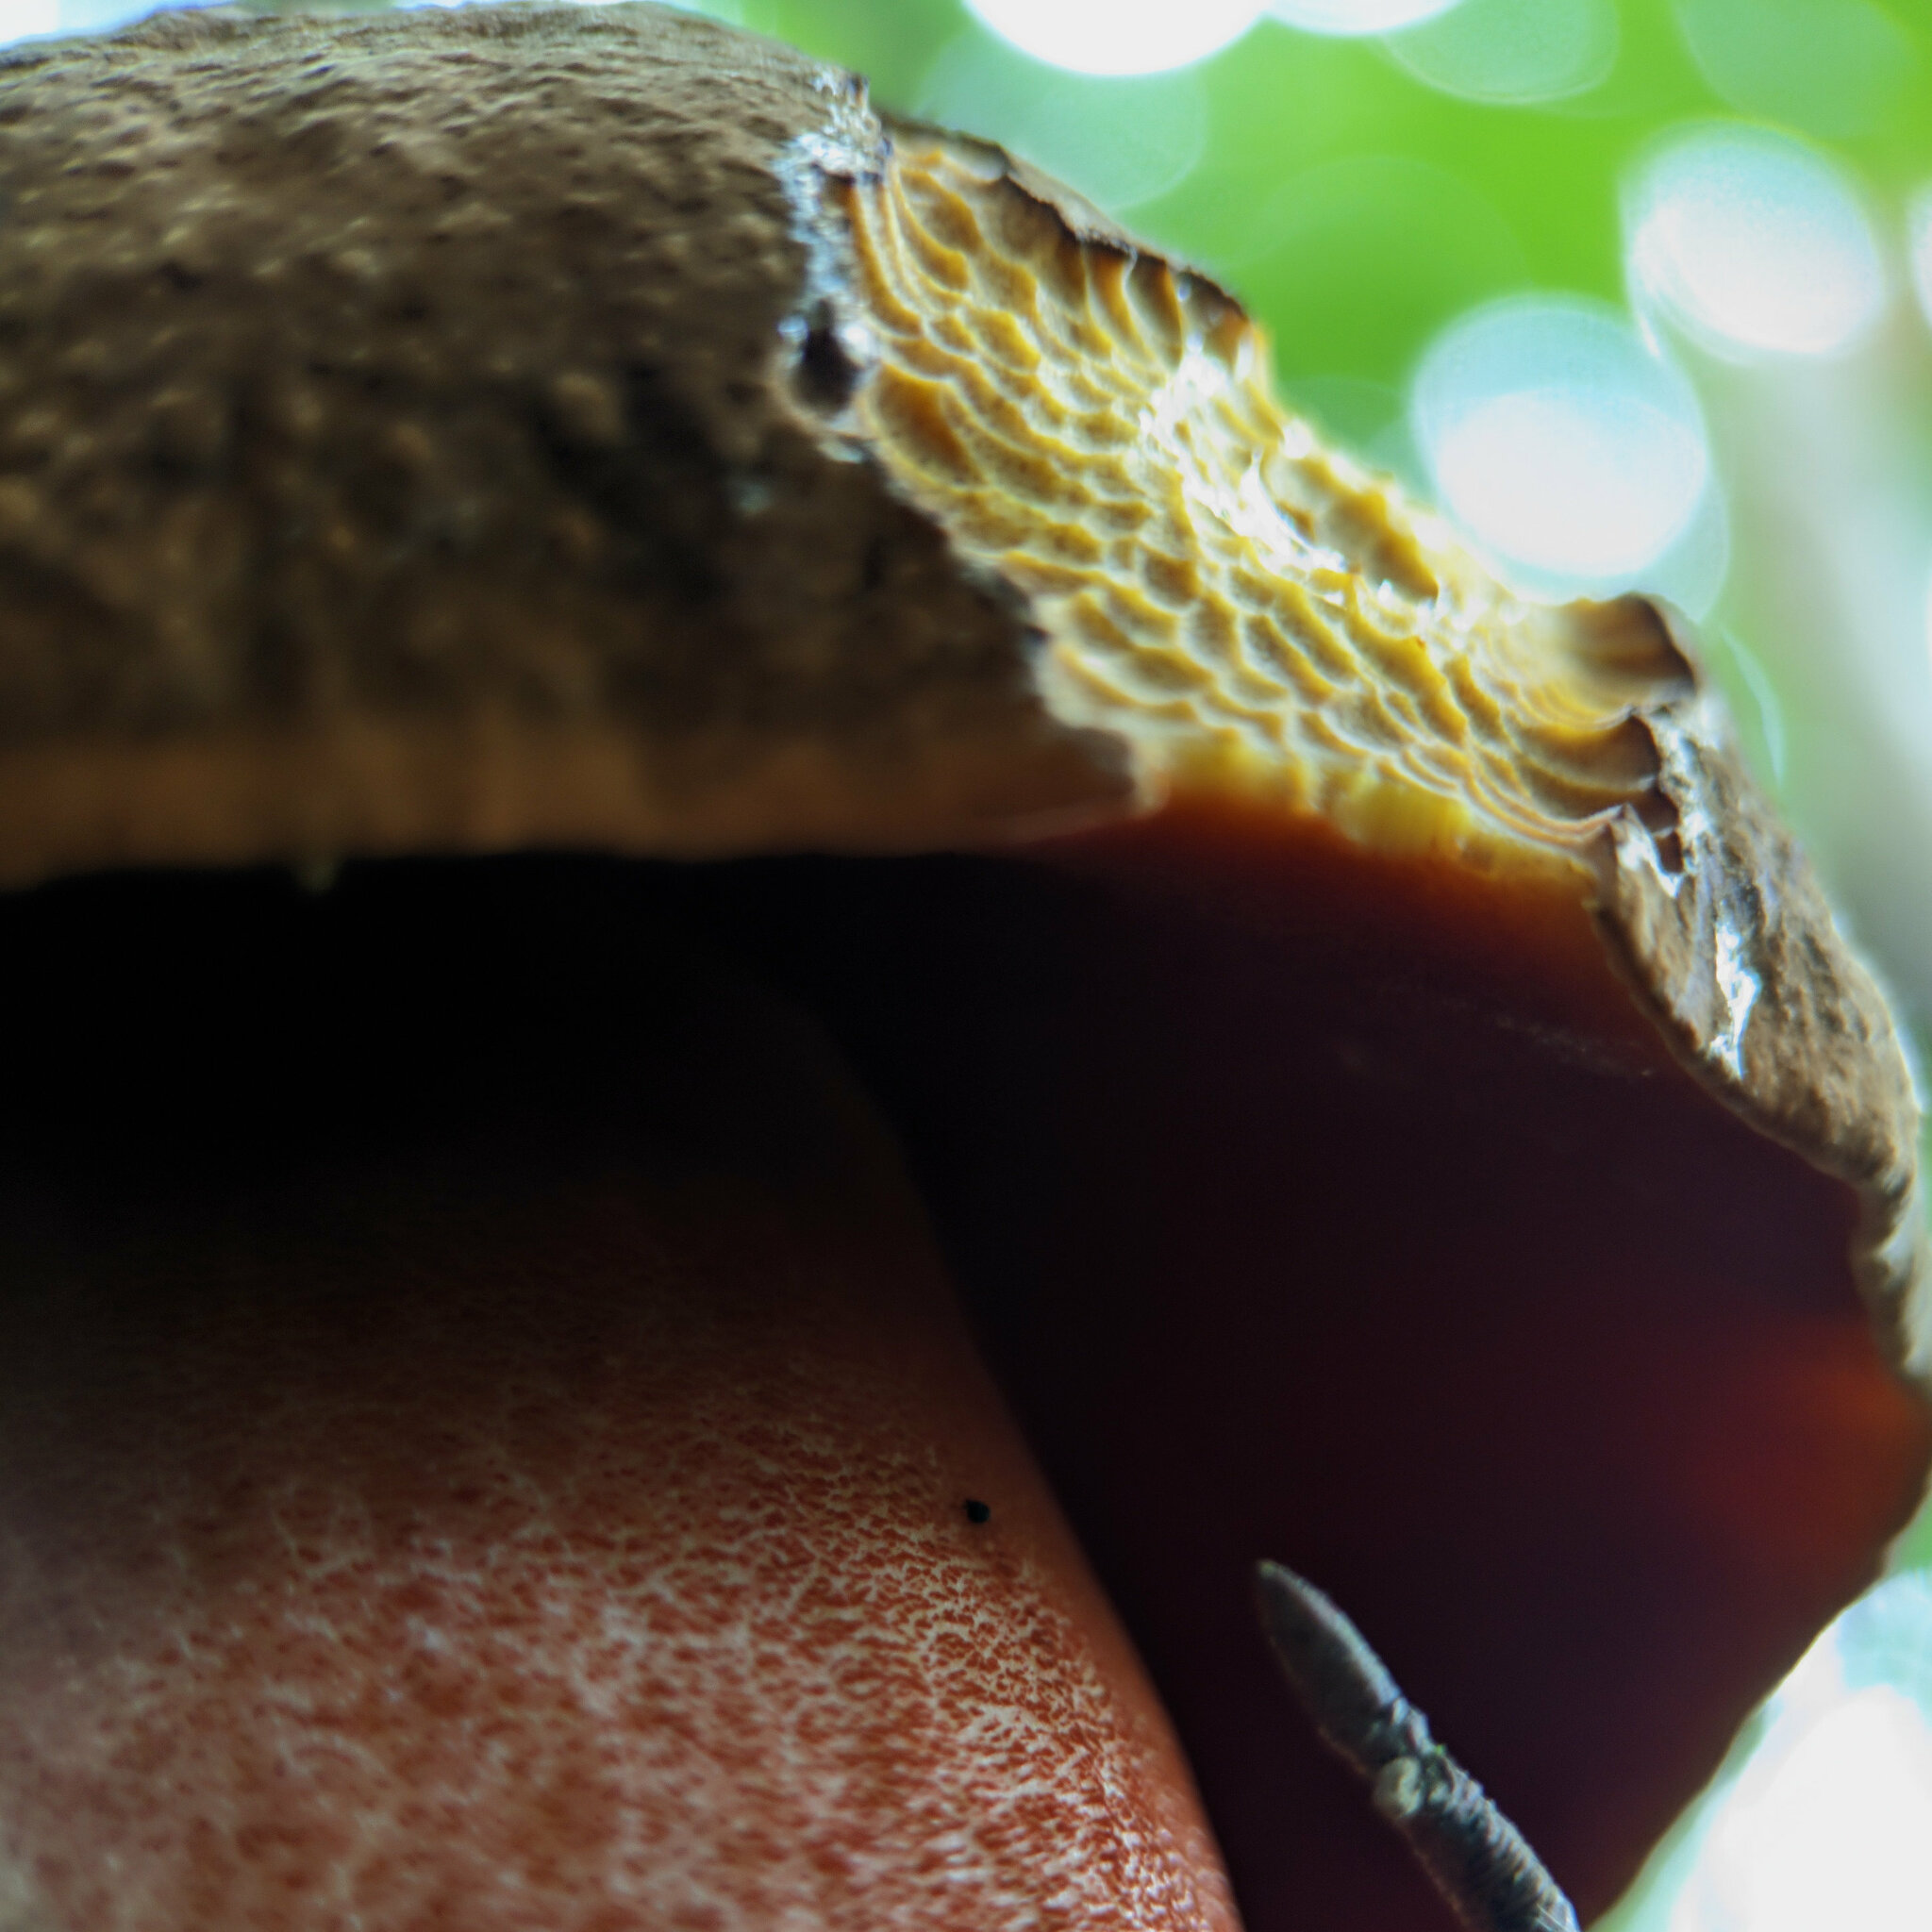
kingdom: Fungi
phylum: Basidiomycota
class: Agaricomycetes
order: Boletales
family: Boletaceae
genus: Neoboletus
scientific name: Neoboletus erythropus
